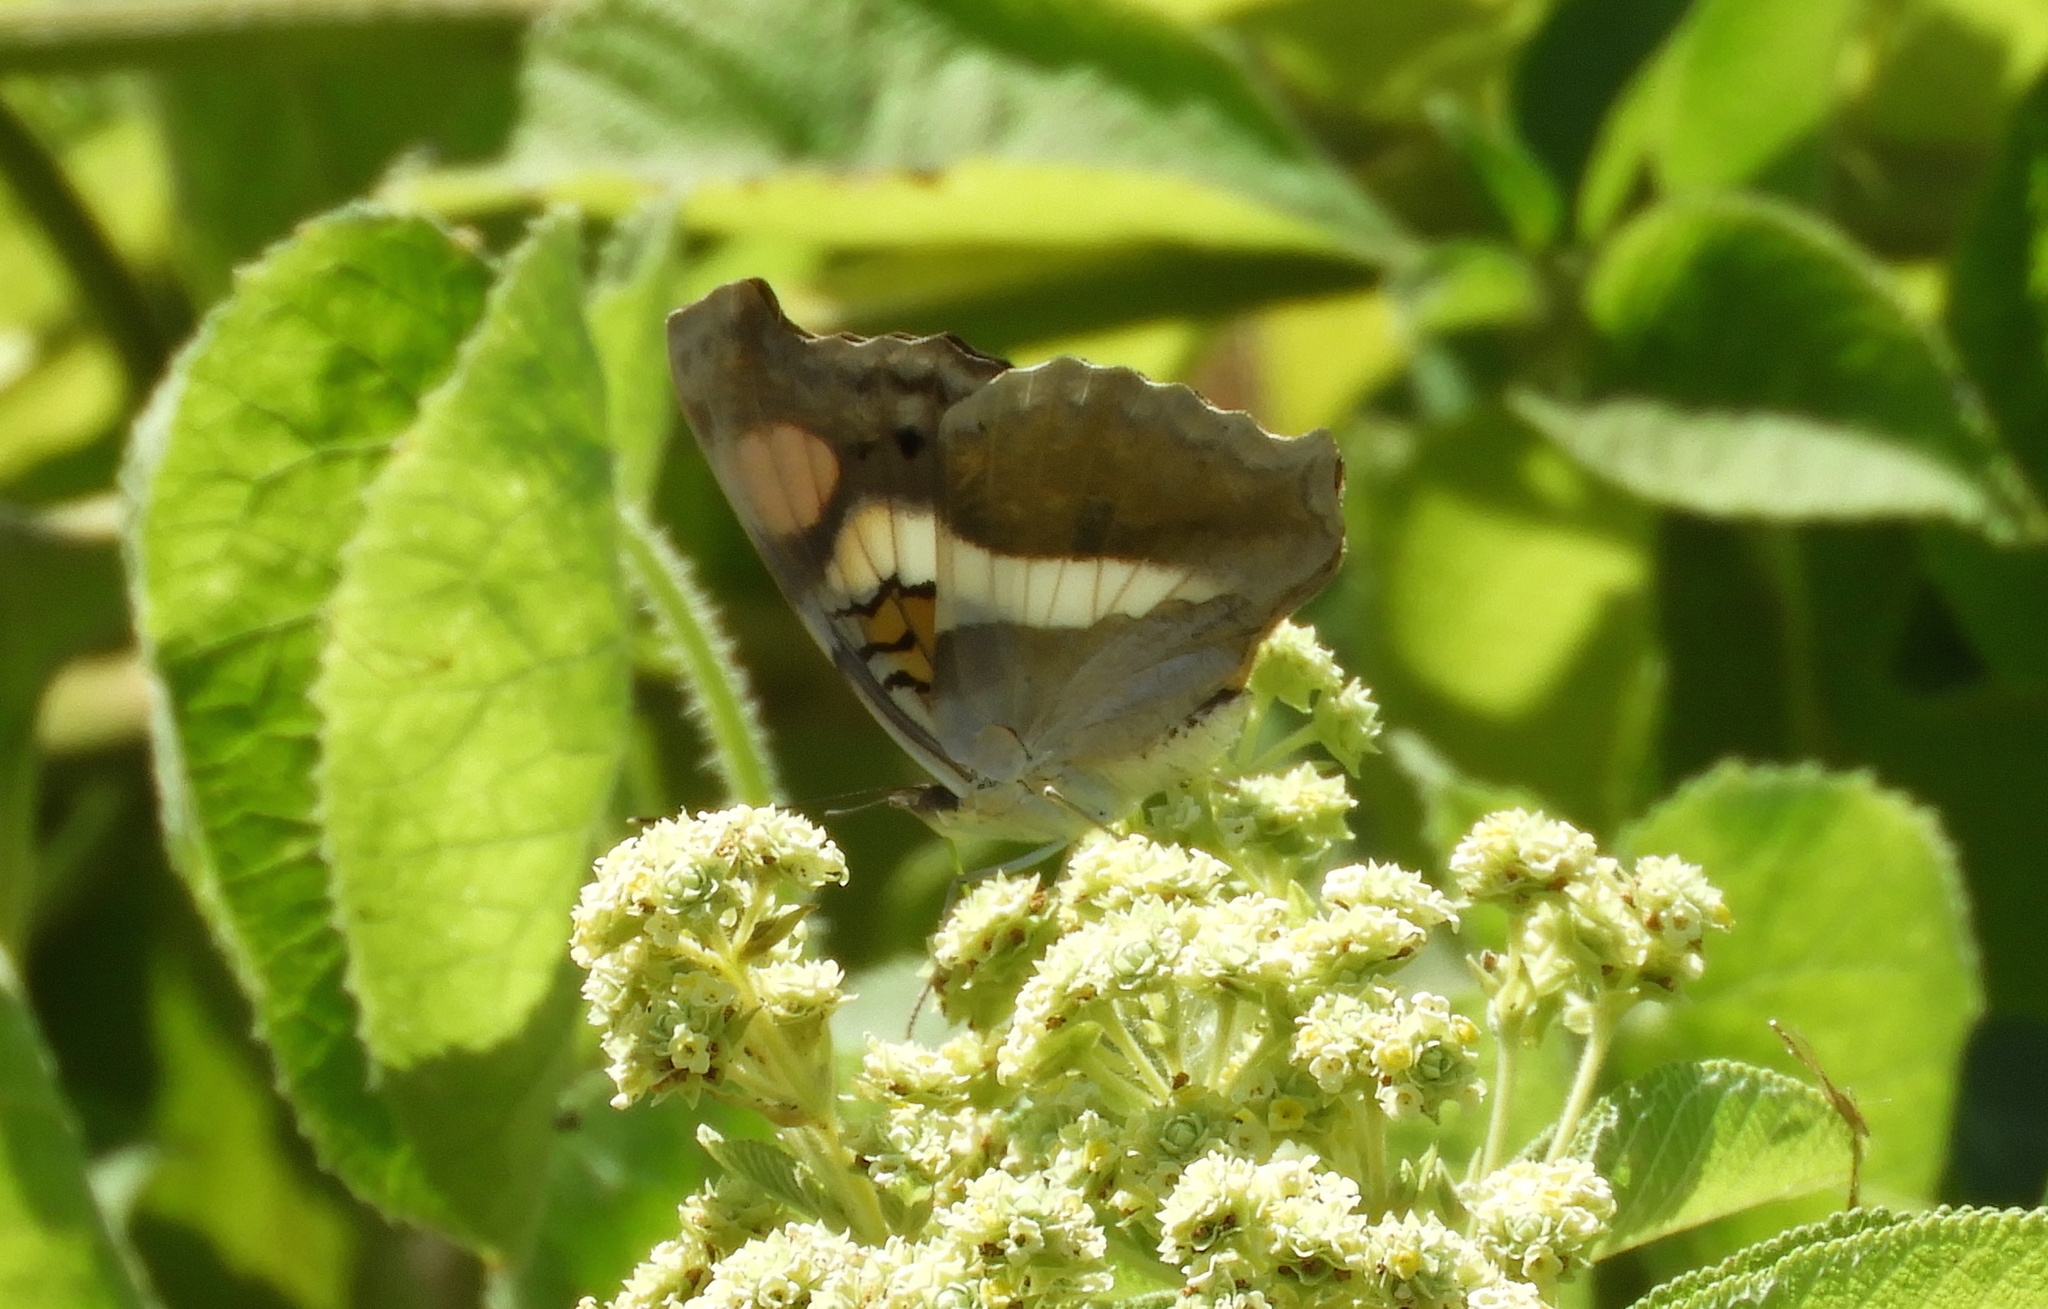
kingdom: Animalia
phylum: Arthropoda
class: Insecta
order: Lepidoptera
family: Nymphalidae
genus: Doxocopa
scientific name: Doxocopa laure
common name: Silver emperor
